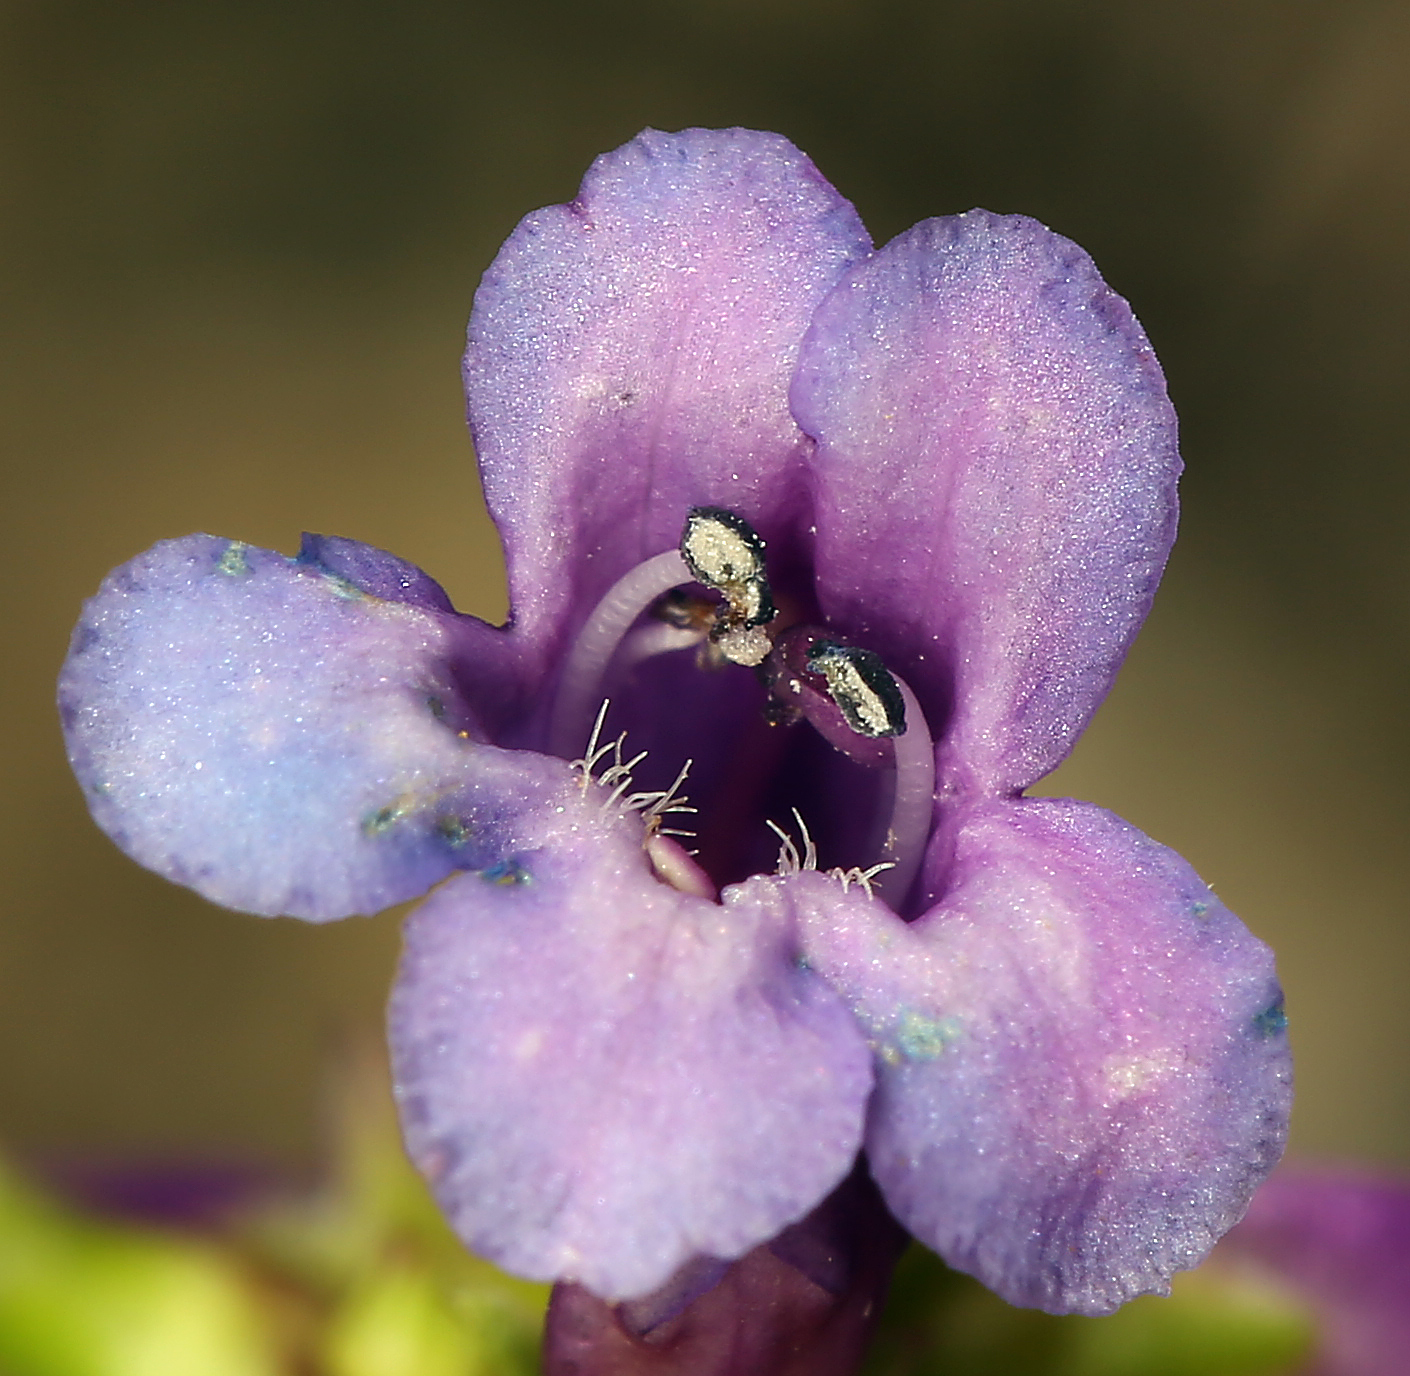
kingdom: Plantae
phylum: Tracheophyta
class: Magnoliopsida
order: Lamiales
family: Plantaginaceae
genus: Penstemon
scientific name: Penstemon procerus
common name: Small-flower penstemon
